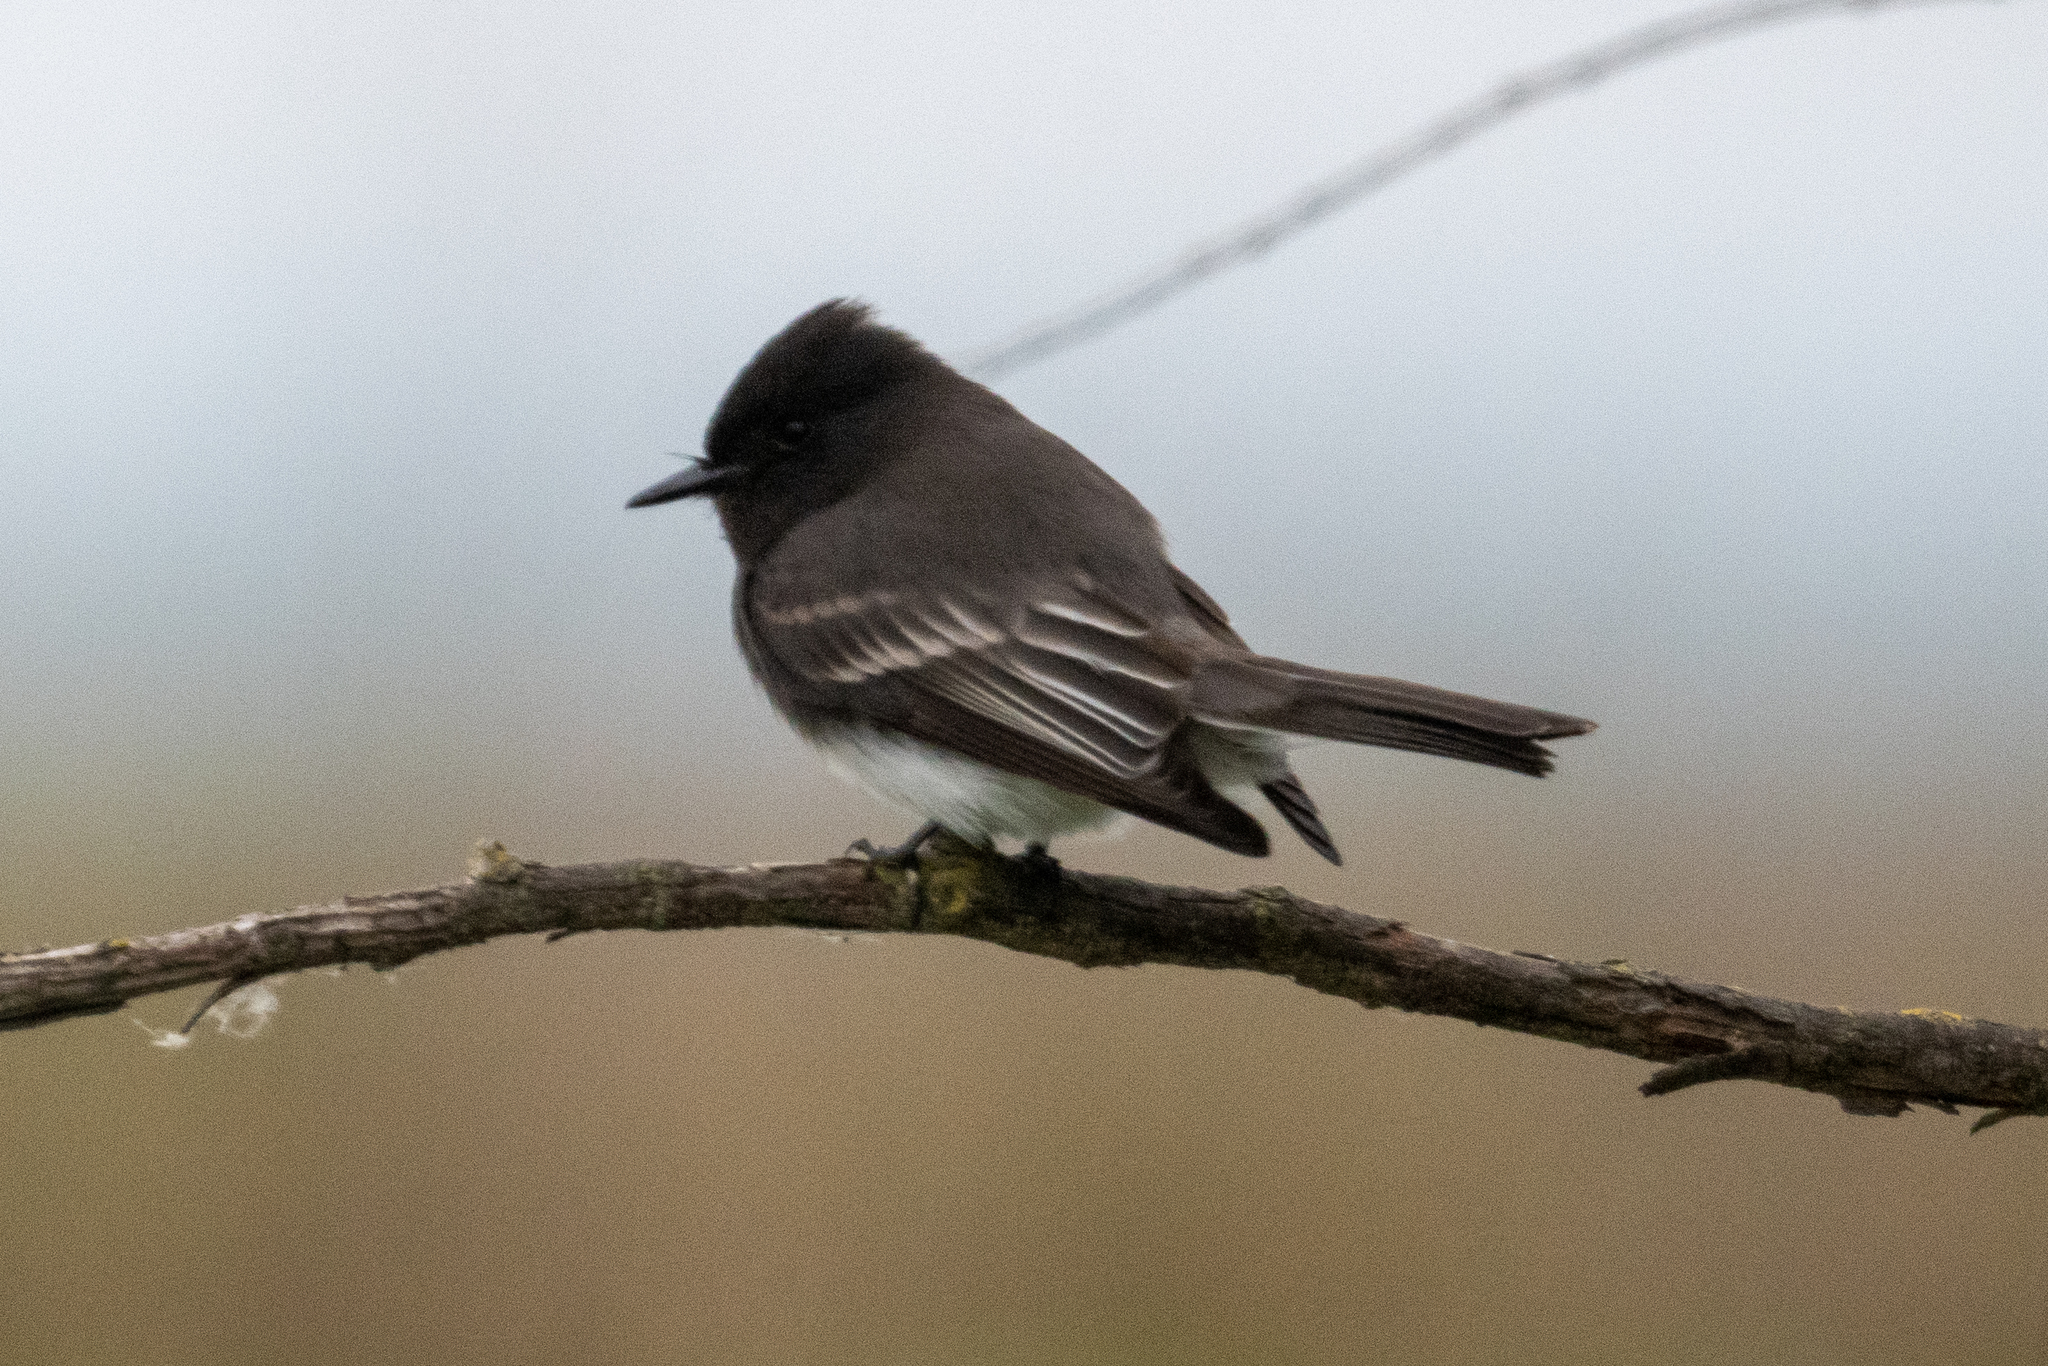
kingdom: Animalia
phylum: Chordata
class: Aves
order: Passeriformes
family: Tyrannidae
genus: Sayornis
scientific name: Sayornis nigricans
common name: Black phoebe
